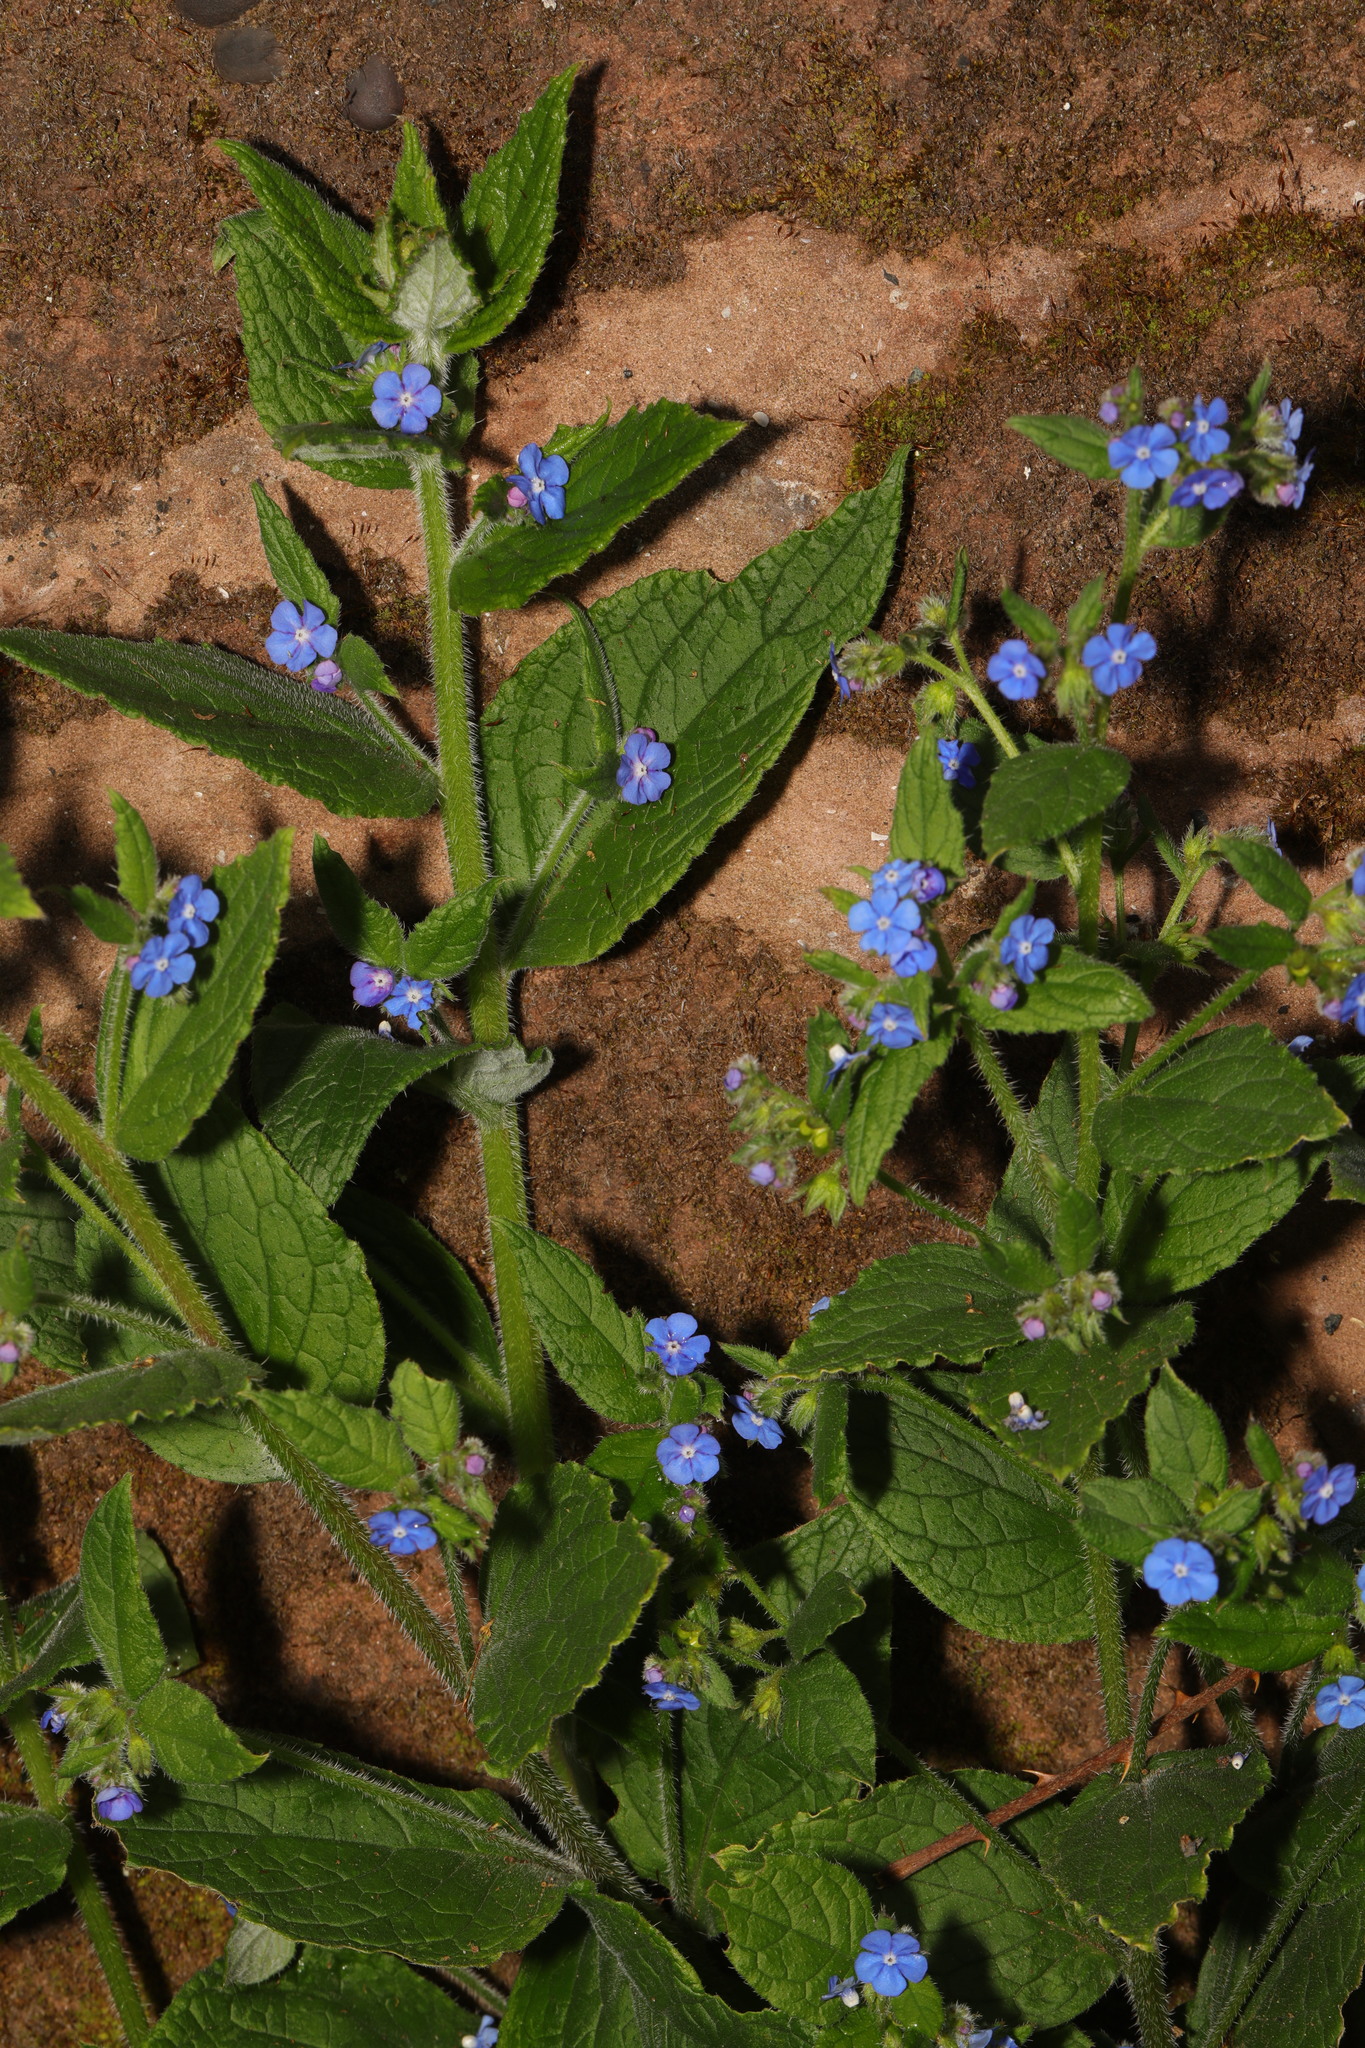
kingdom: Plantae
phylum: Tracheophyta
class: Magnoliopsida
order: Boraginales
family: Boraginaceae
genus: Pentaglottis
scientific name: Pentaglottis sempervirens
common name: Green alkanet
